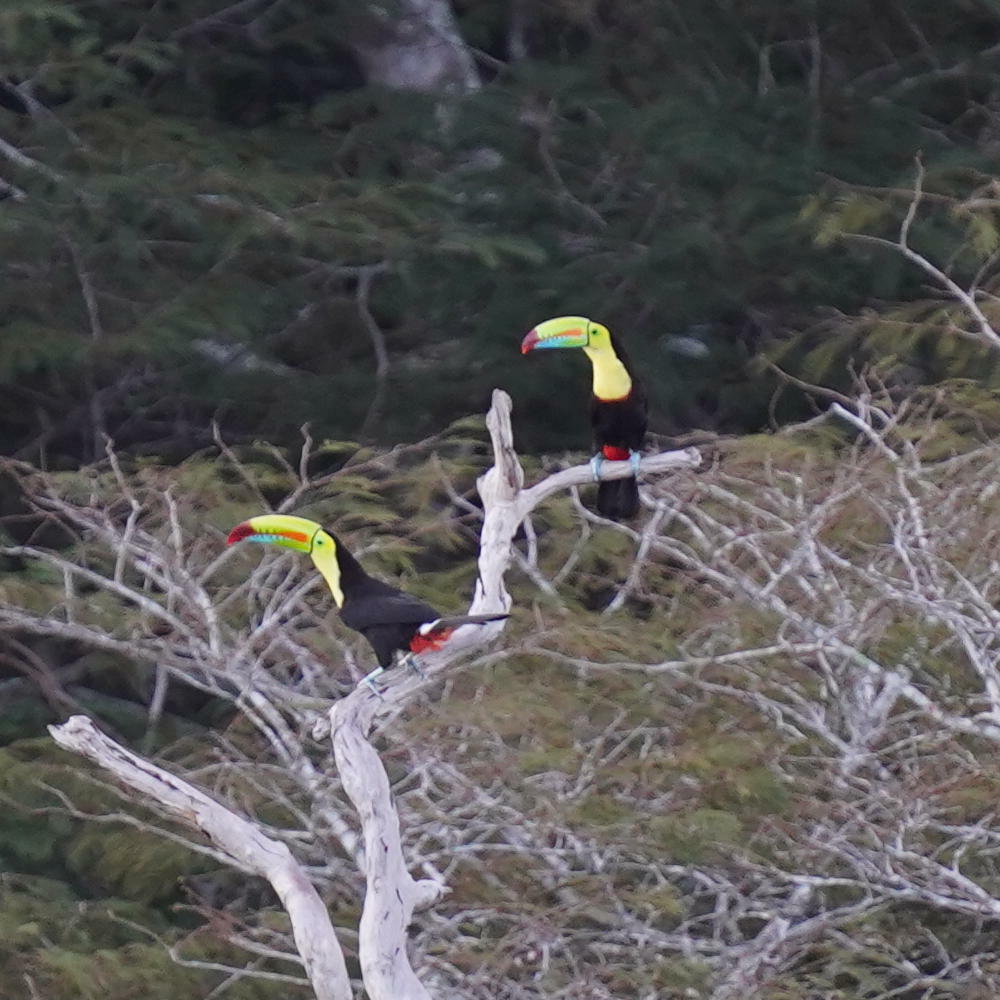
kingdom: Animalia
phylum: Chordata
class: Aves
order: Piciformes
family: Ramphastidae
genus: Ramphastos
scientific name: Ramphastos sulfuratus
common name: Keel-billed toucan
